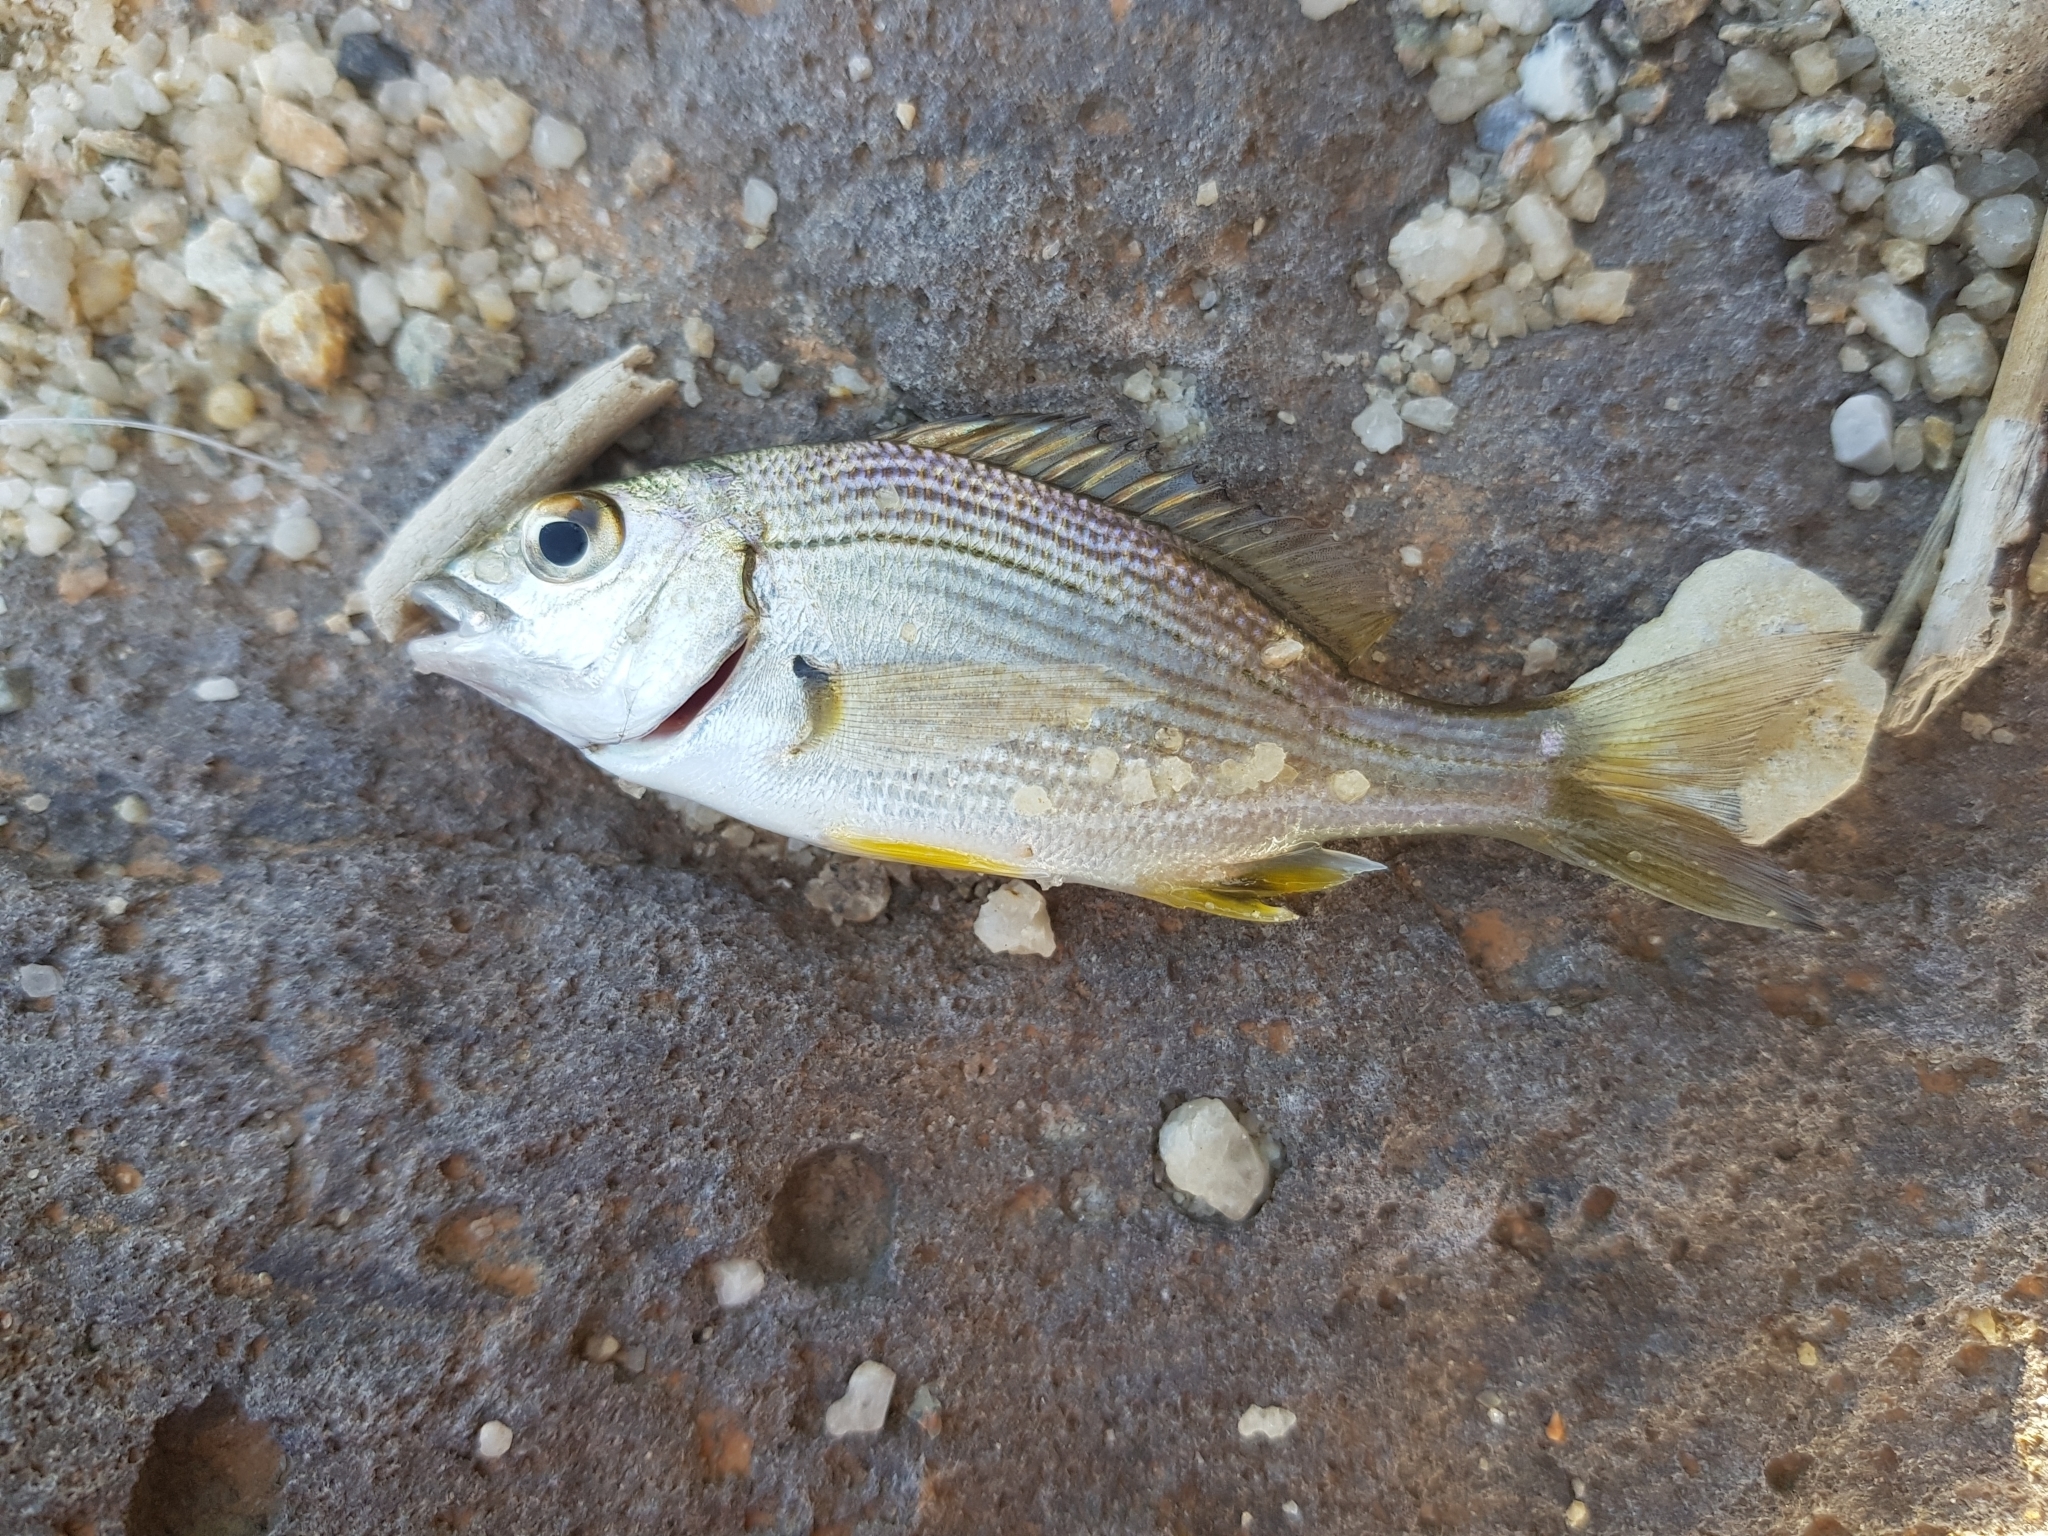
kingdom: Animalia
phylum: Chordata
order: Perciformes
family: Sparidae
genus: Acanthopagrus
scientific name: Acanthopagrus butcheri
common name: Black bream
